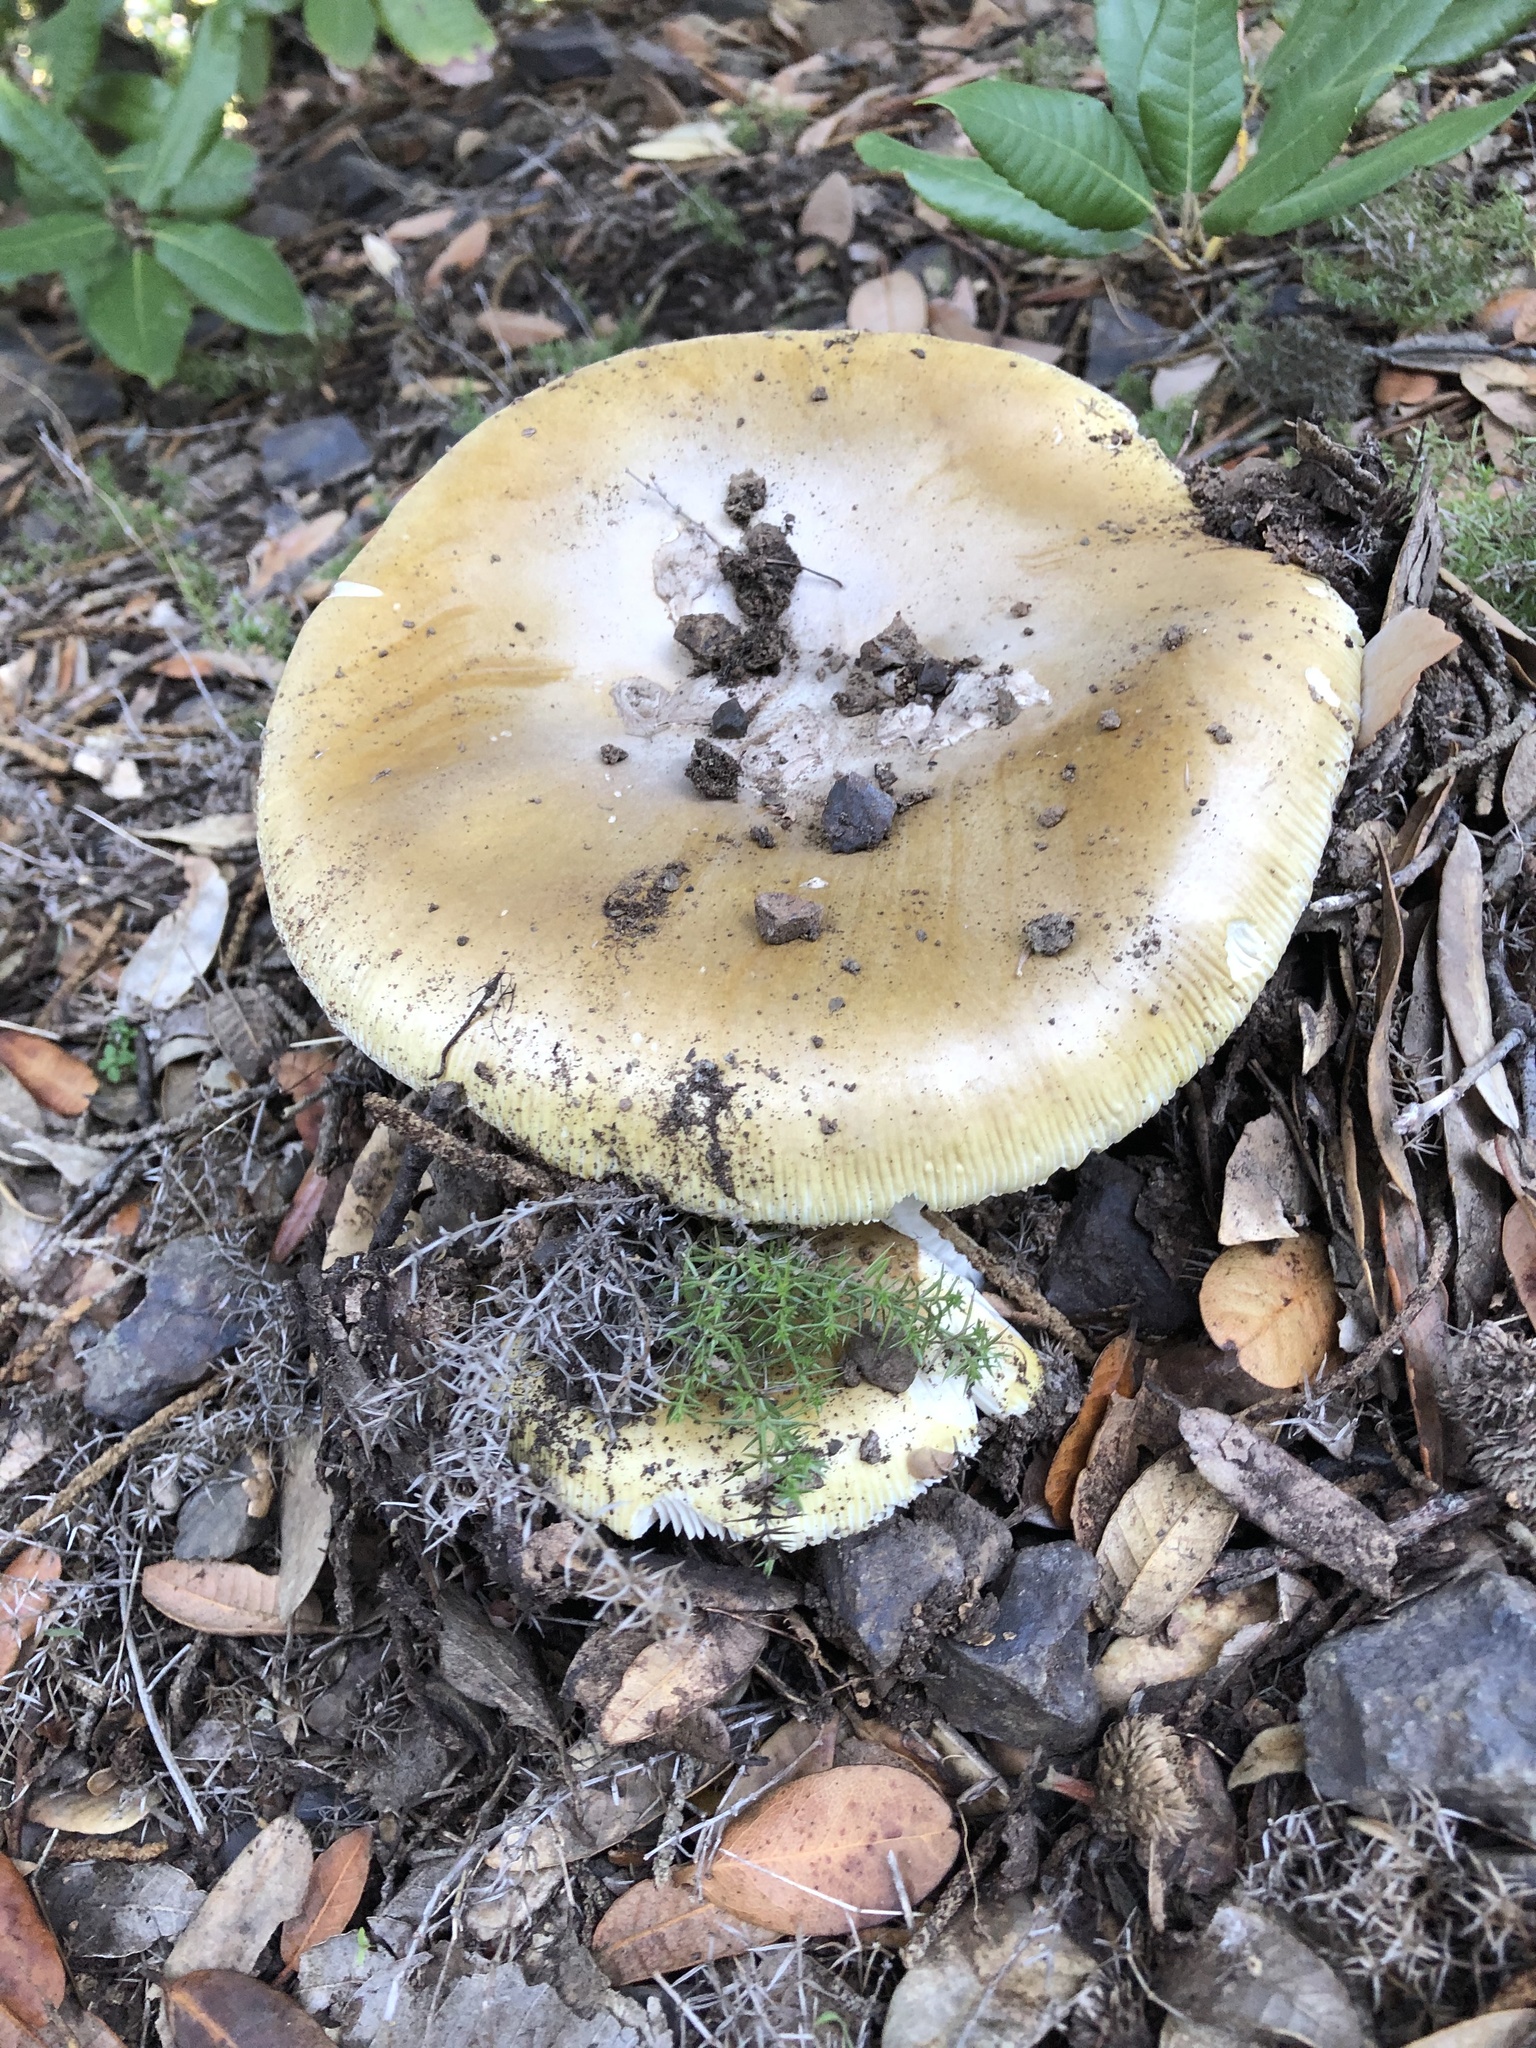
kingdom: Fungi
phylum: Basidiomycota
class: Agaricomycetes
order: Agaricales
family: Amanitaceae
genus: Amanita
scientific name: Amanita calyptroderma
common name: Coccora
